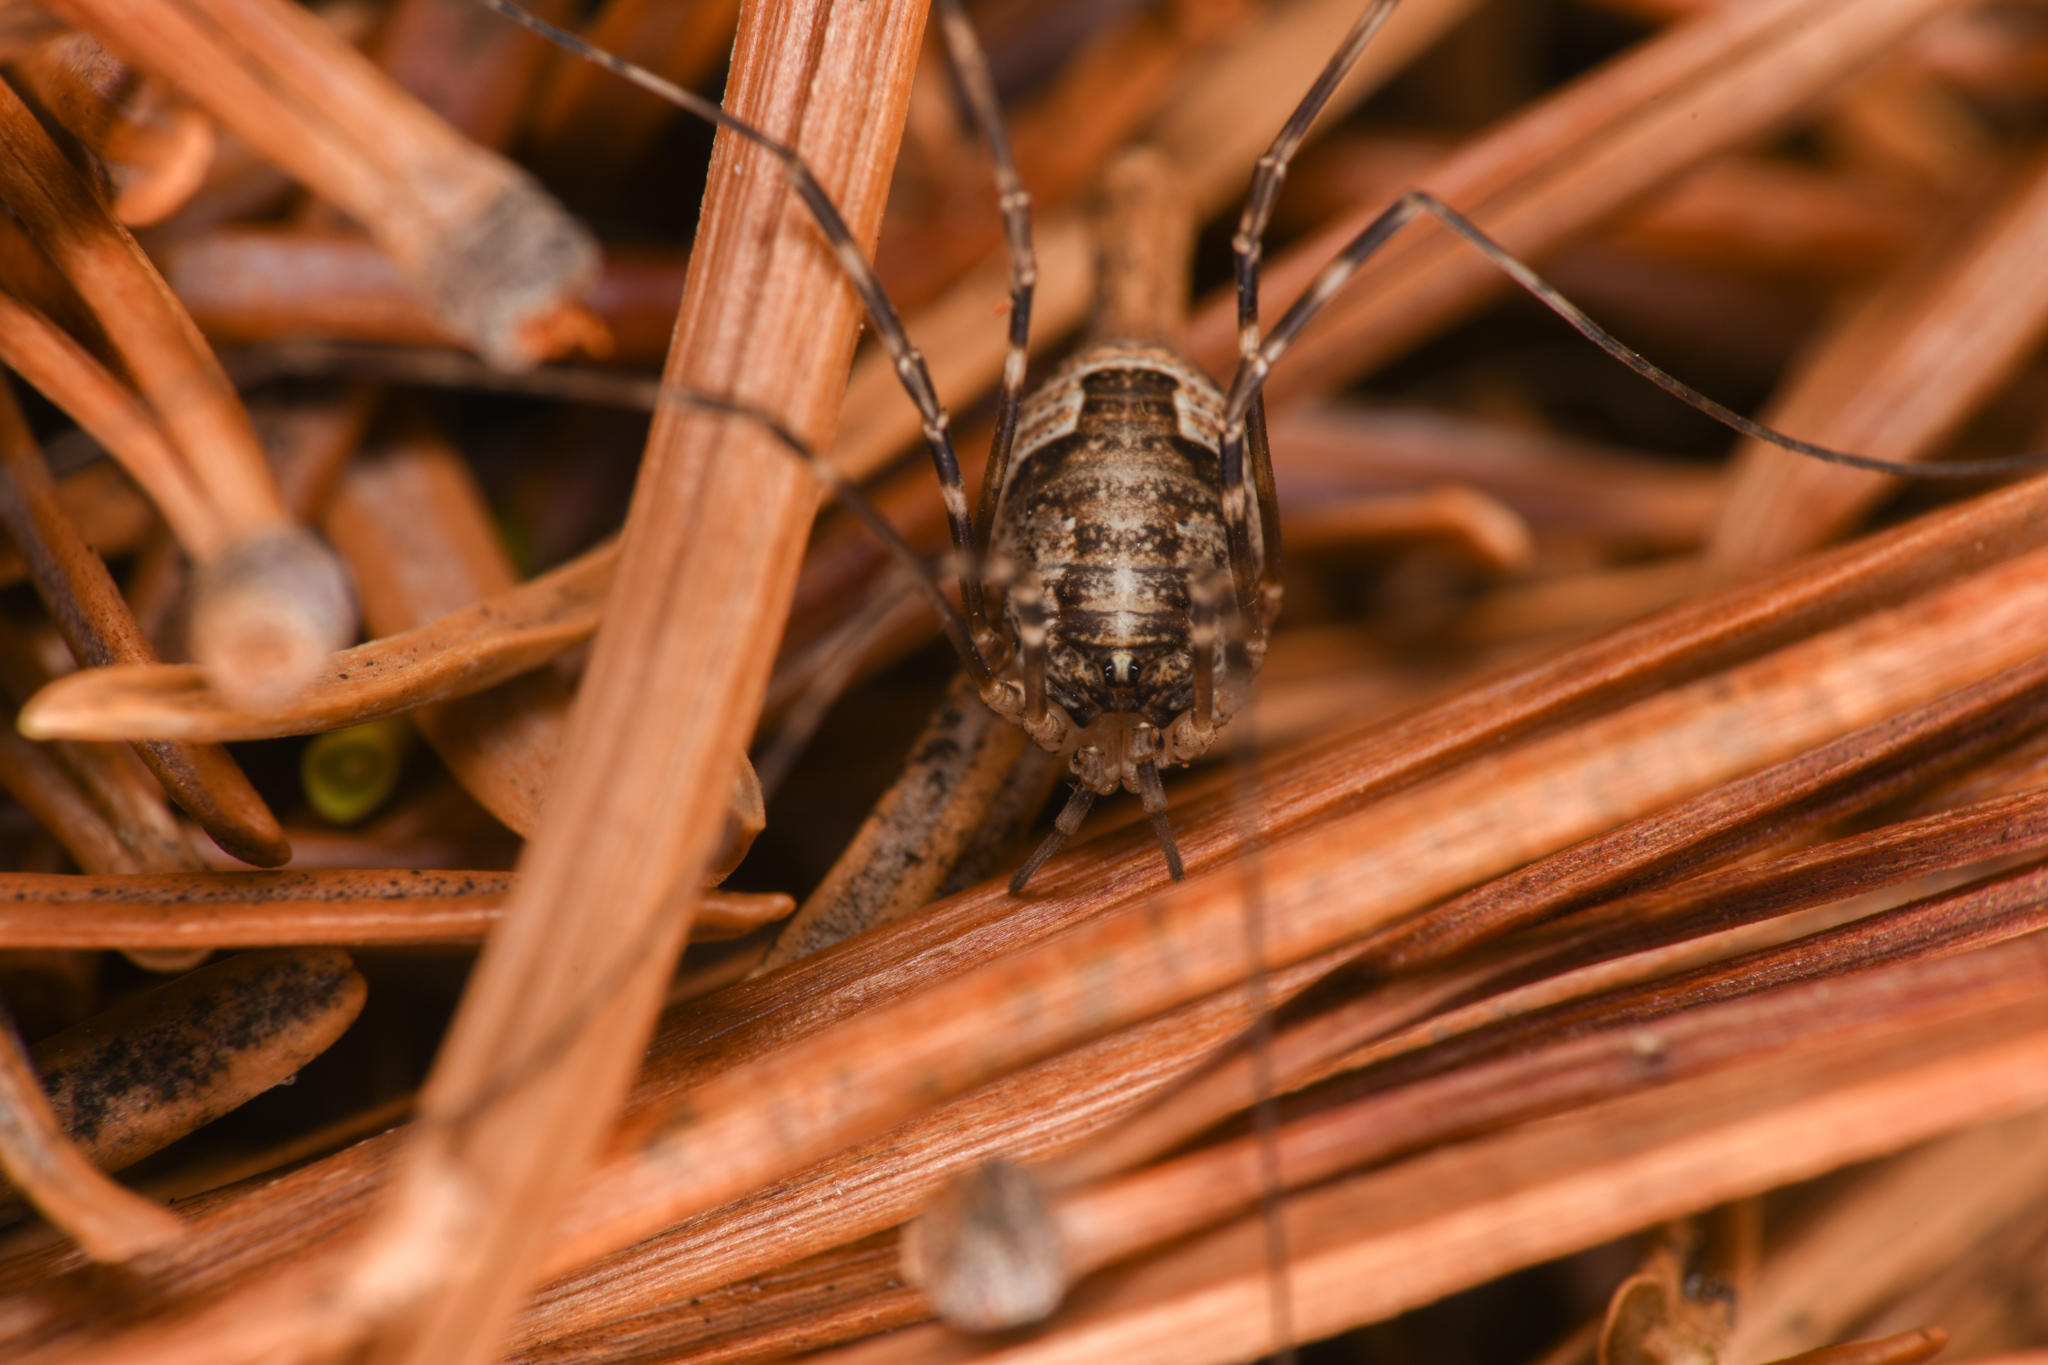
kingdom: Animalia
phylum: Arthropoda
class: Arachnida
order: Opiliones
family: Phalangiidae
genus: Leptobunus
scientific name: Leptobunus parvulus
